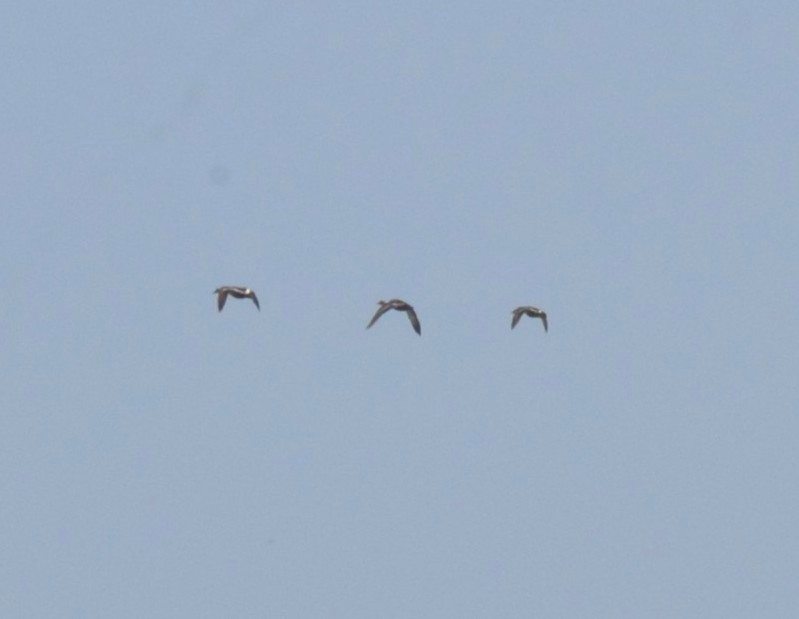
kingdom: Animalia
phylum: Chordata
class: Aves
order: Anseriformes
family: Anatidae
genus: Anas
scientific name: Anas poecilorhyncha
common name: Indian spot-billed duck
